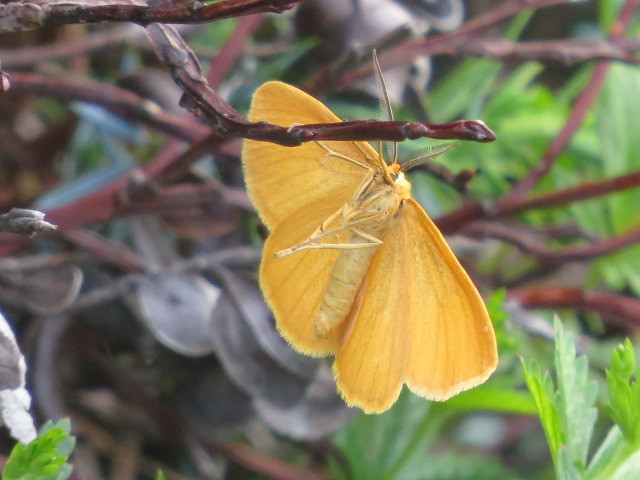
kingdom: Animalia
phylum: Arthropoda
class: Insecta
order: Lepidoptera
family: Geometridae
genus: Crocota
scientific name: Crocota tinctaria
